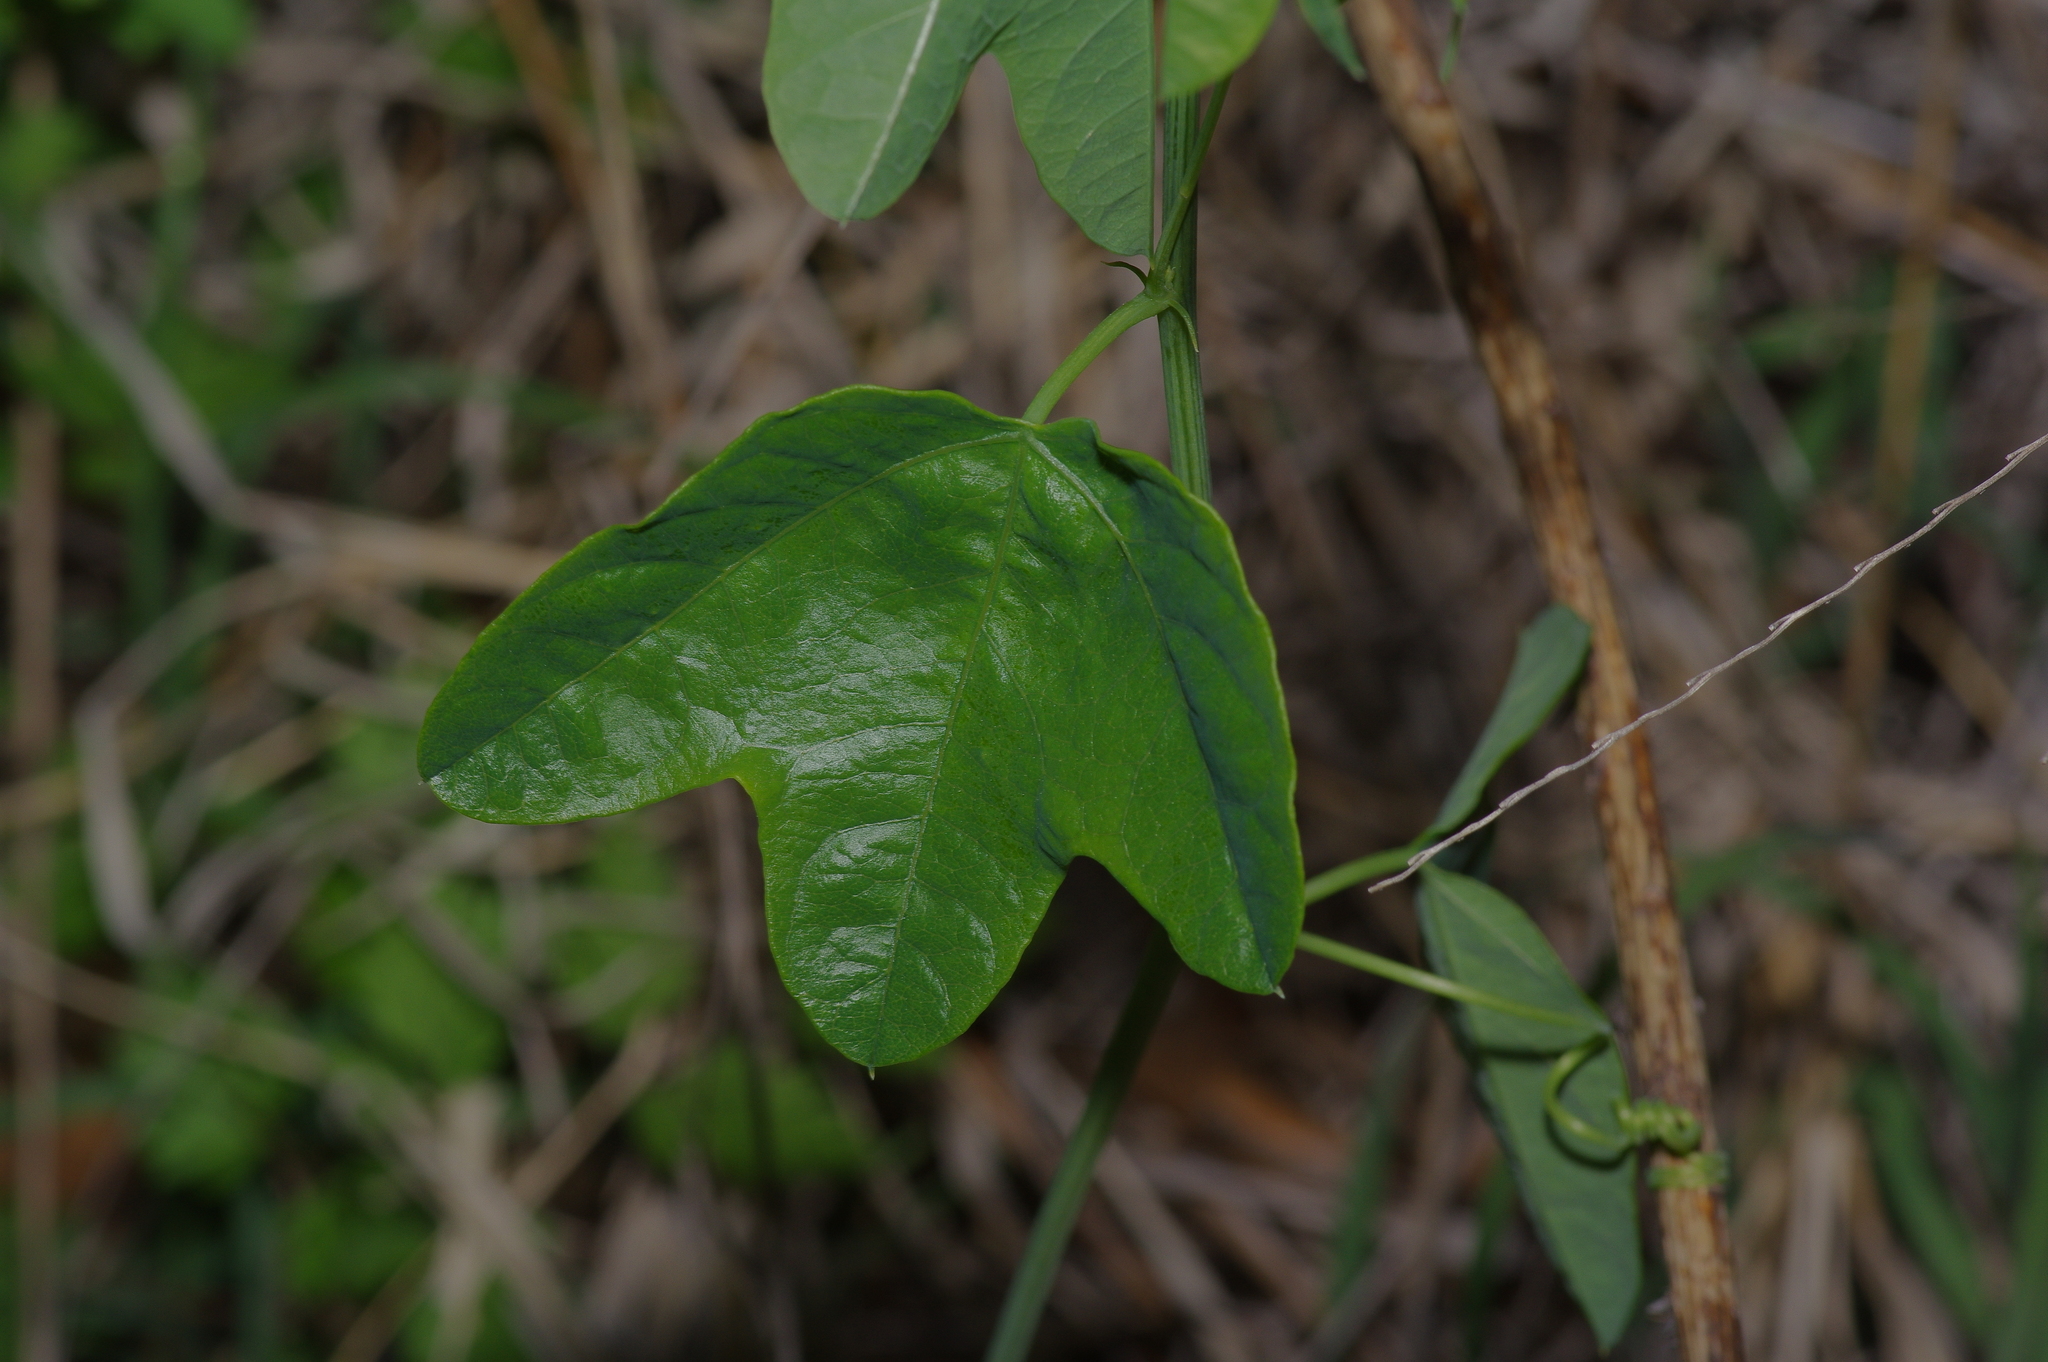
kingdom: Plantae
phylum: Tracheophyta
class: Magnoliopsida
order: Malpighiales
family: Passifloraceae
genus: Passiflora
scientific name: Passiflora lutea
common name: Yellow passionflower
